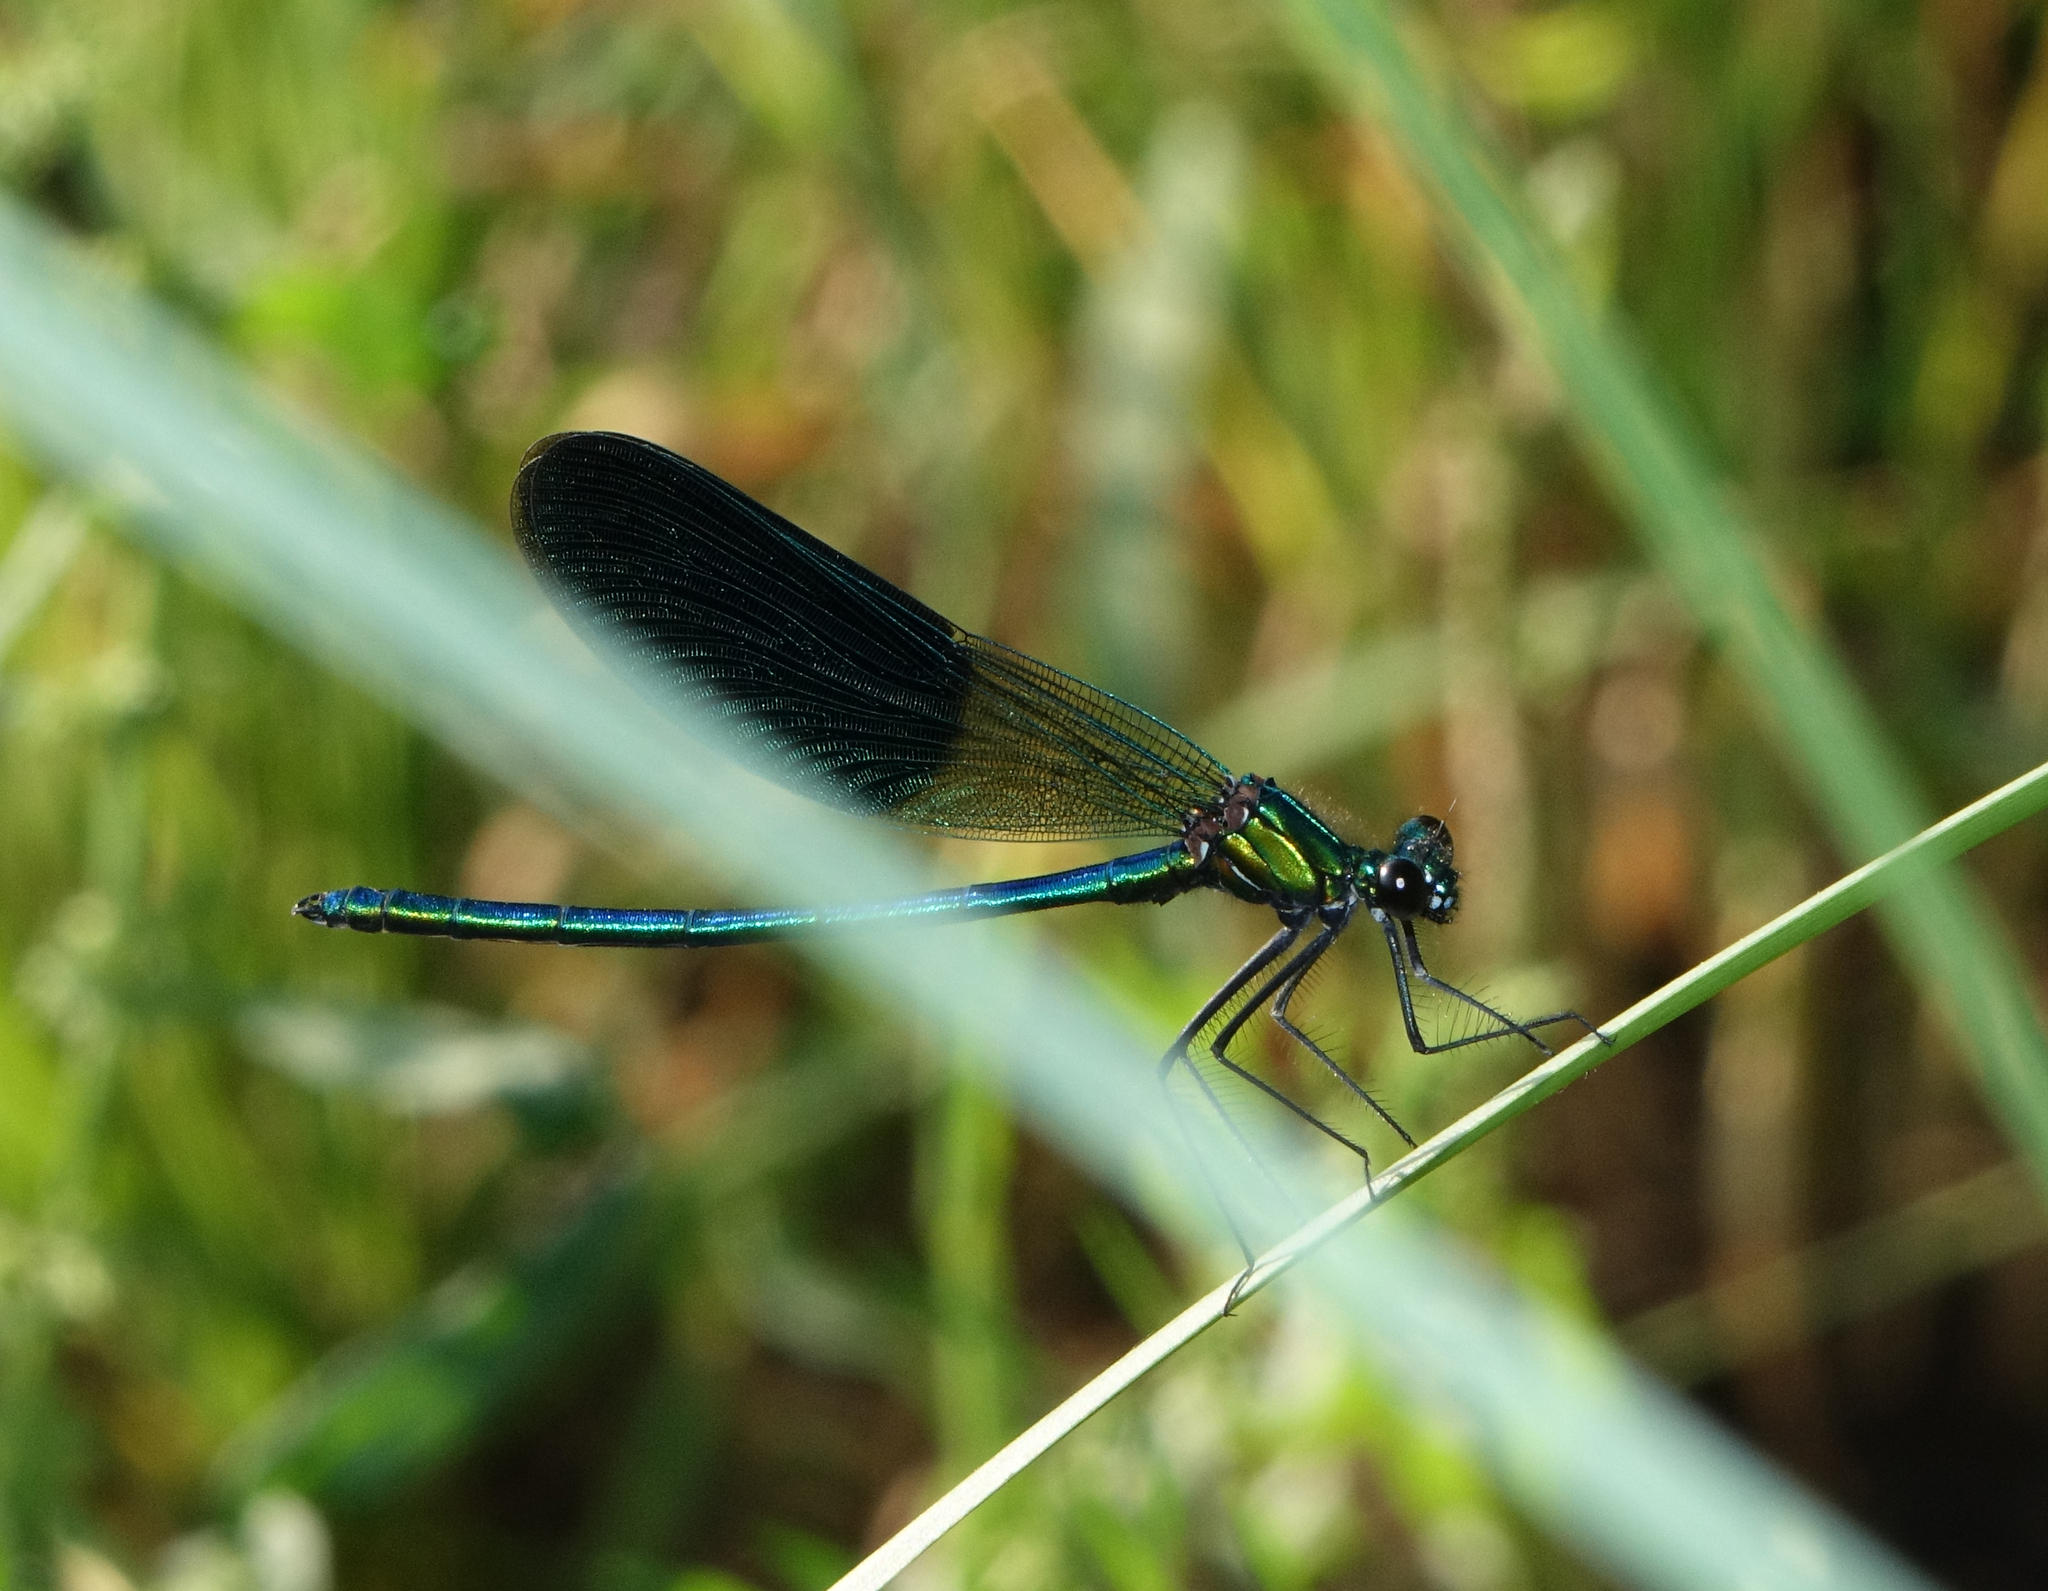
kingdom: Animalia
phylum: Arthropoda
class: Insecta
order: Odonata
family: Calopterygidae
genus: Calopteryx
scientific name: Calopteryx splendens
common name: Banded demoiselle
